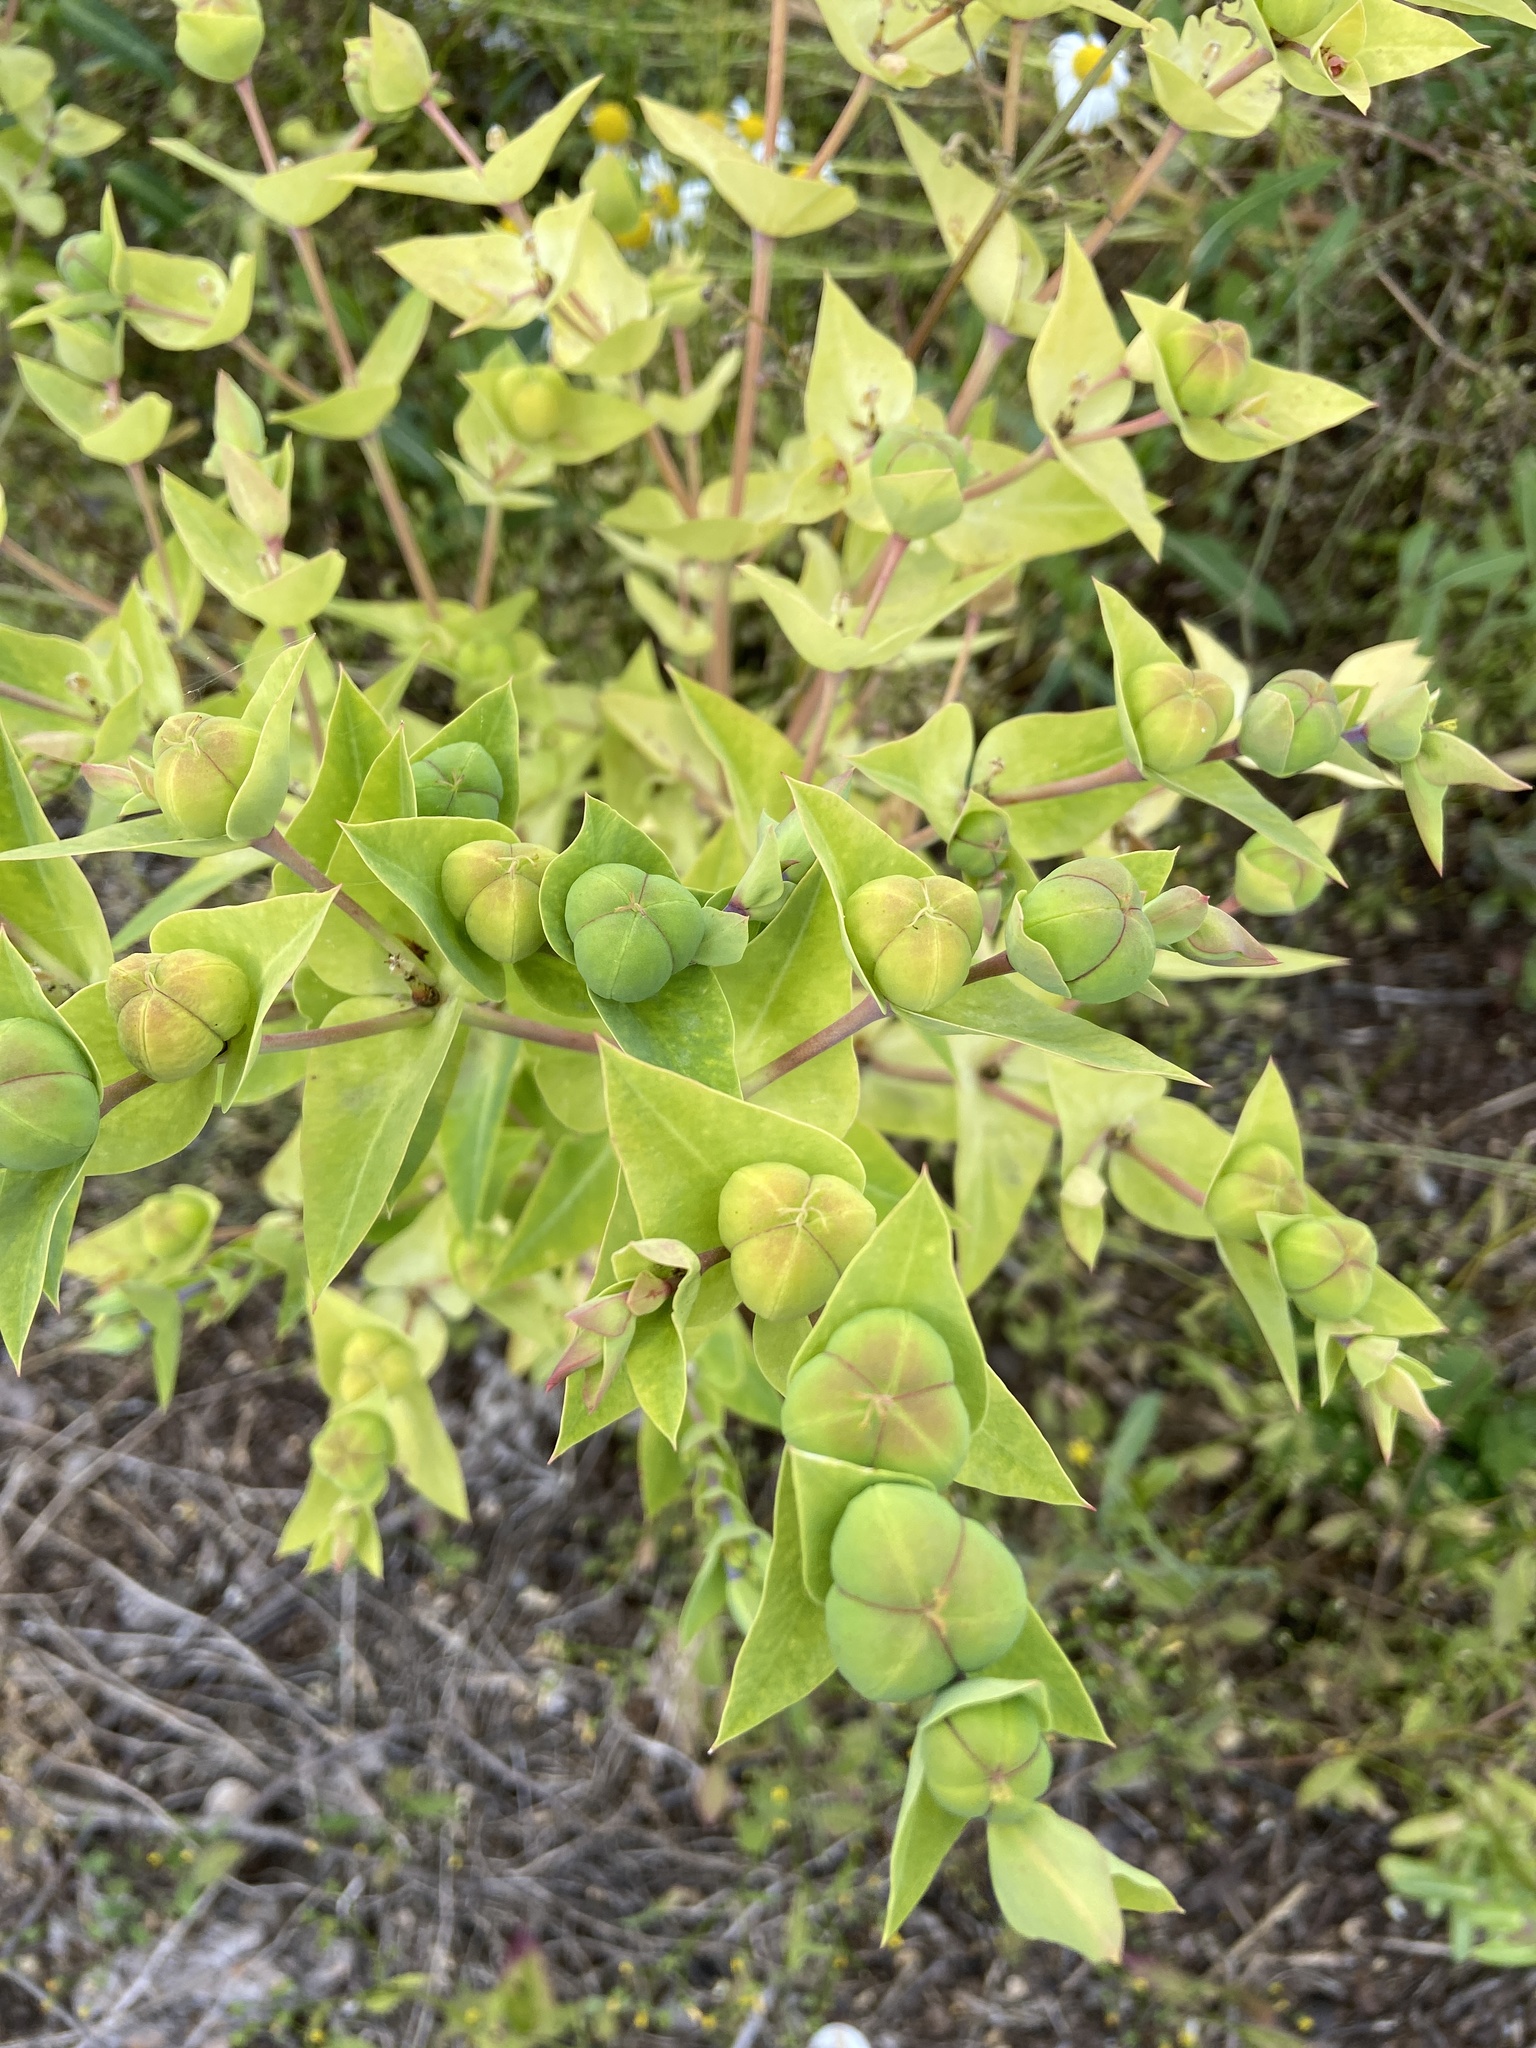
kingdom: Plantae
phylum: Tracheophyta
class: Magnoliopsida
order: Malpighiales
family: Euphorbiaceae
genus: Euphorbia
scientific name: Euphorbia lathyris
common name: Caper spurge
